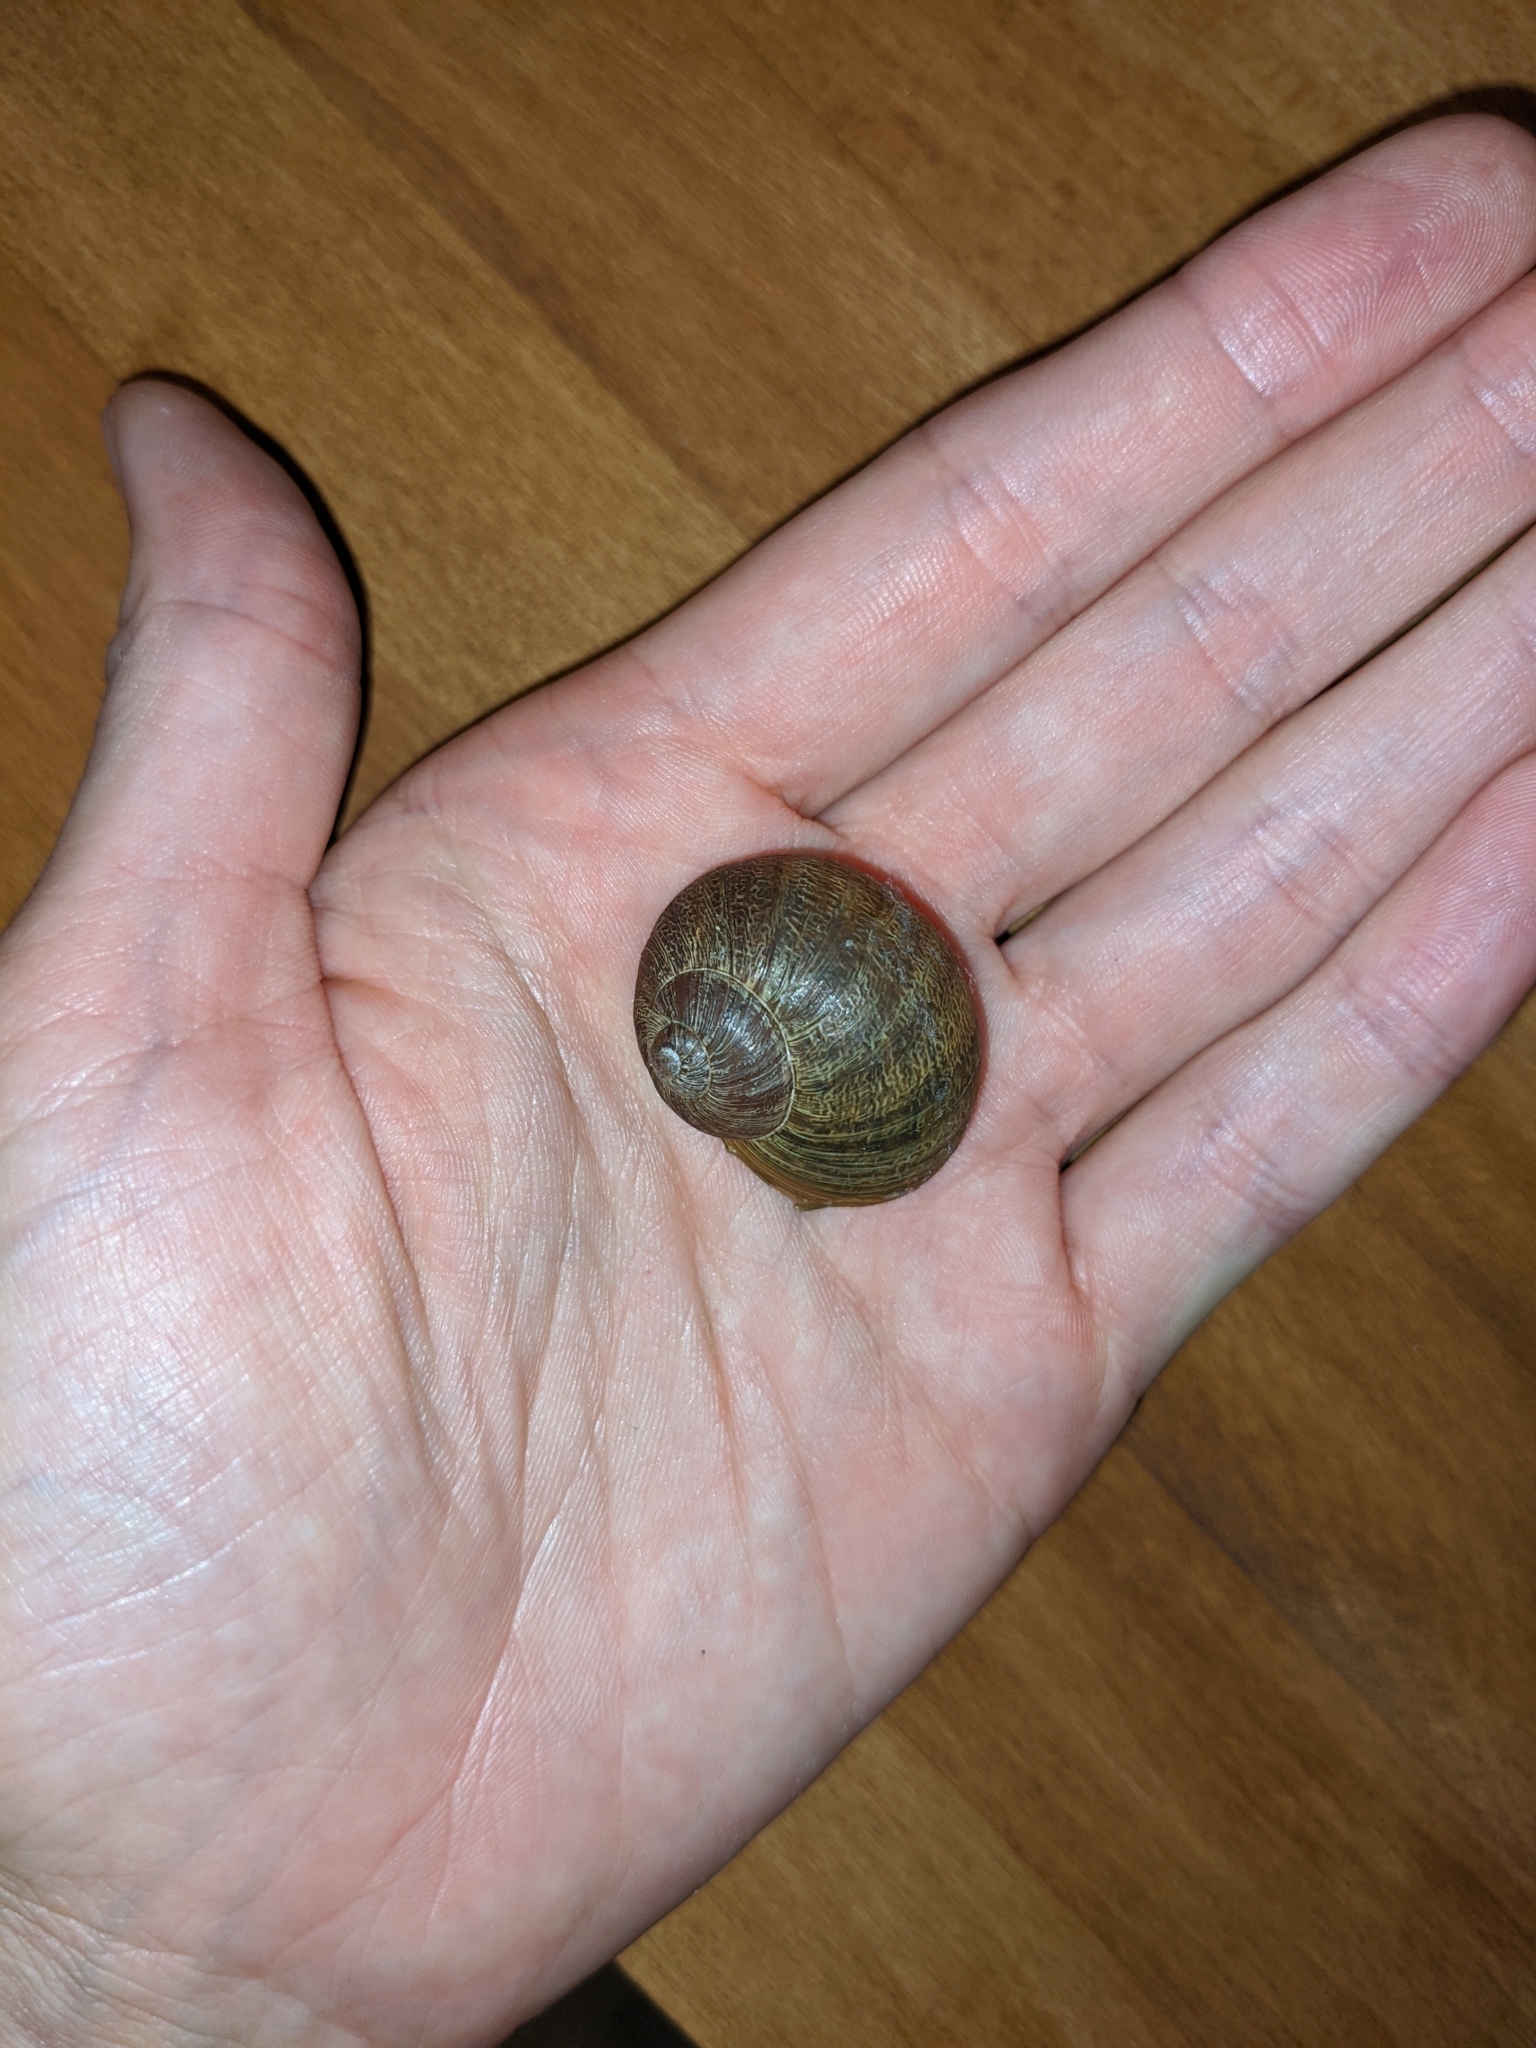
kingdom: Animalia
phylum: Mollusca
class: Gastropoda
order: Stylommatophora
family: Helicidae
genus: Cornu
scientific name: Cornu aspersum
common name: Brown garden snail
